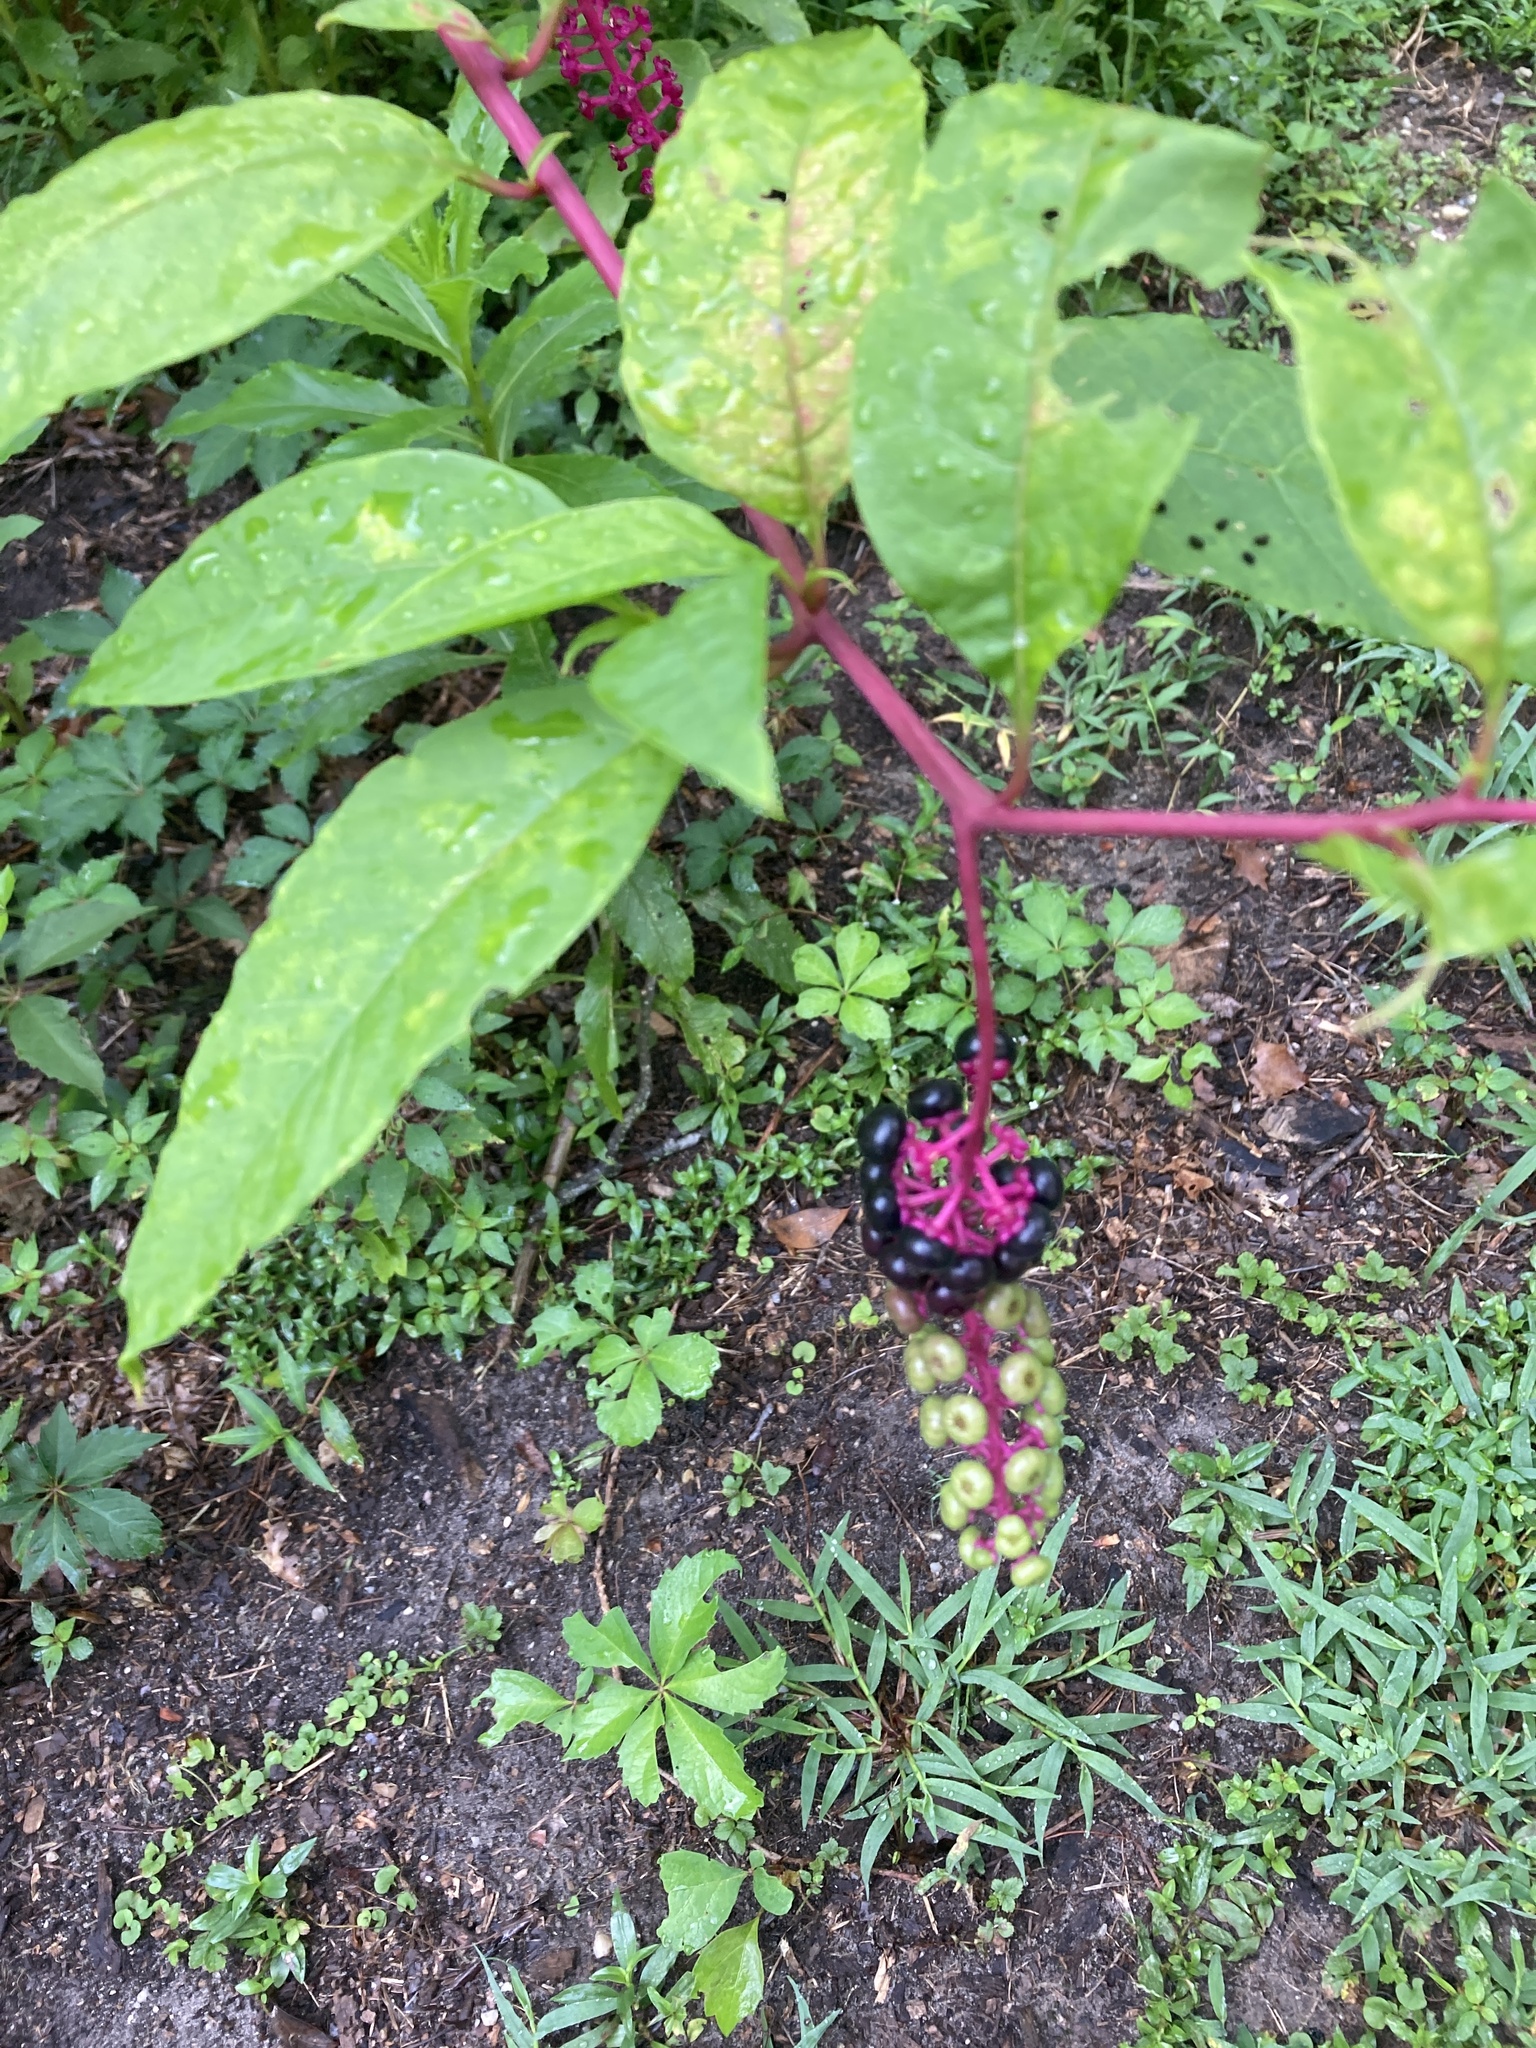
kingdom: Plantae
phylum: Tracheophyta
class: Magnoliopsida
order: Caryophyllales
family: Phytolaccaceae
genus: Phytolacca
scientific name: Phytolacca americana
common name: American pokeweed
